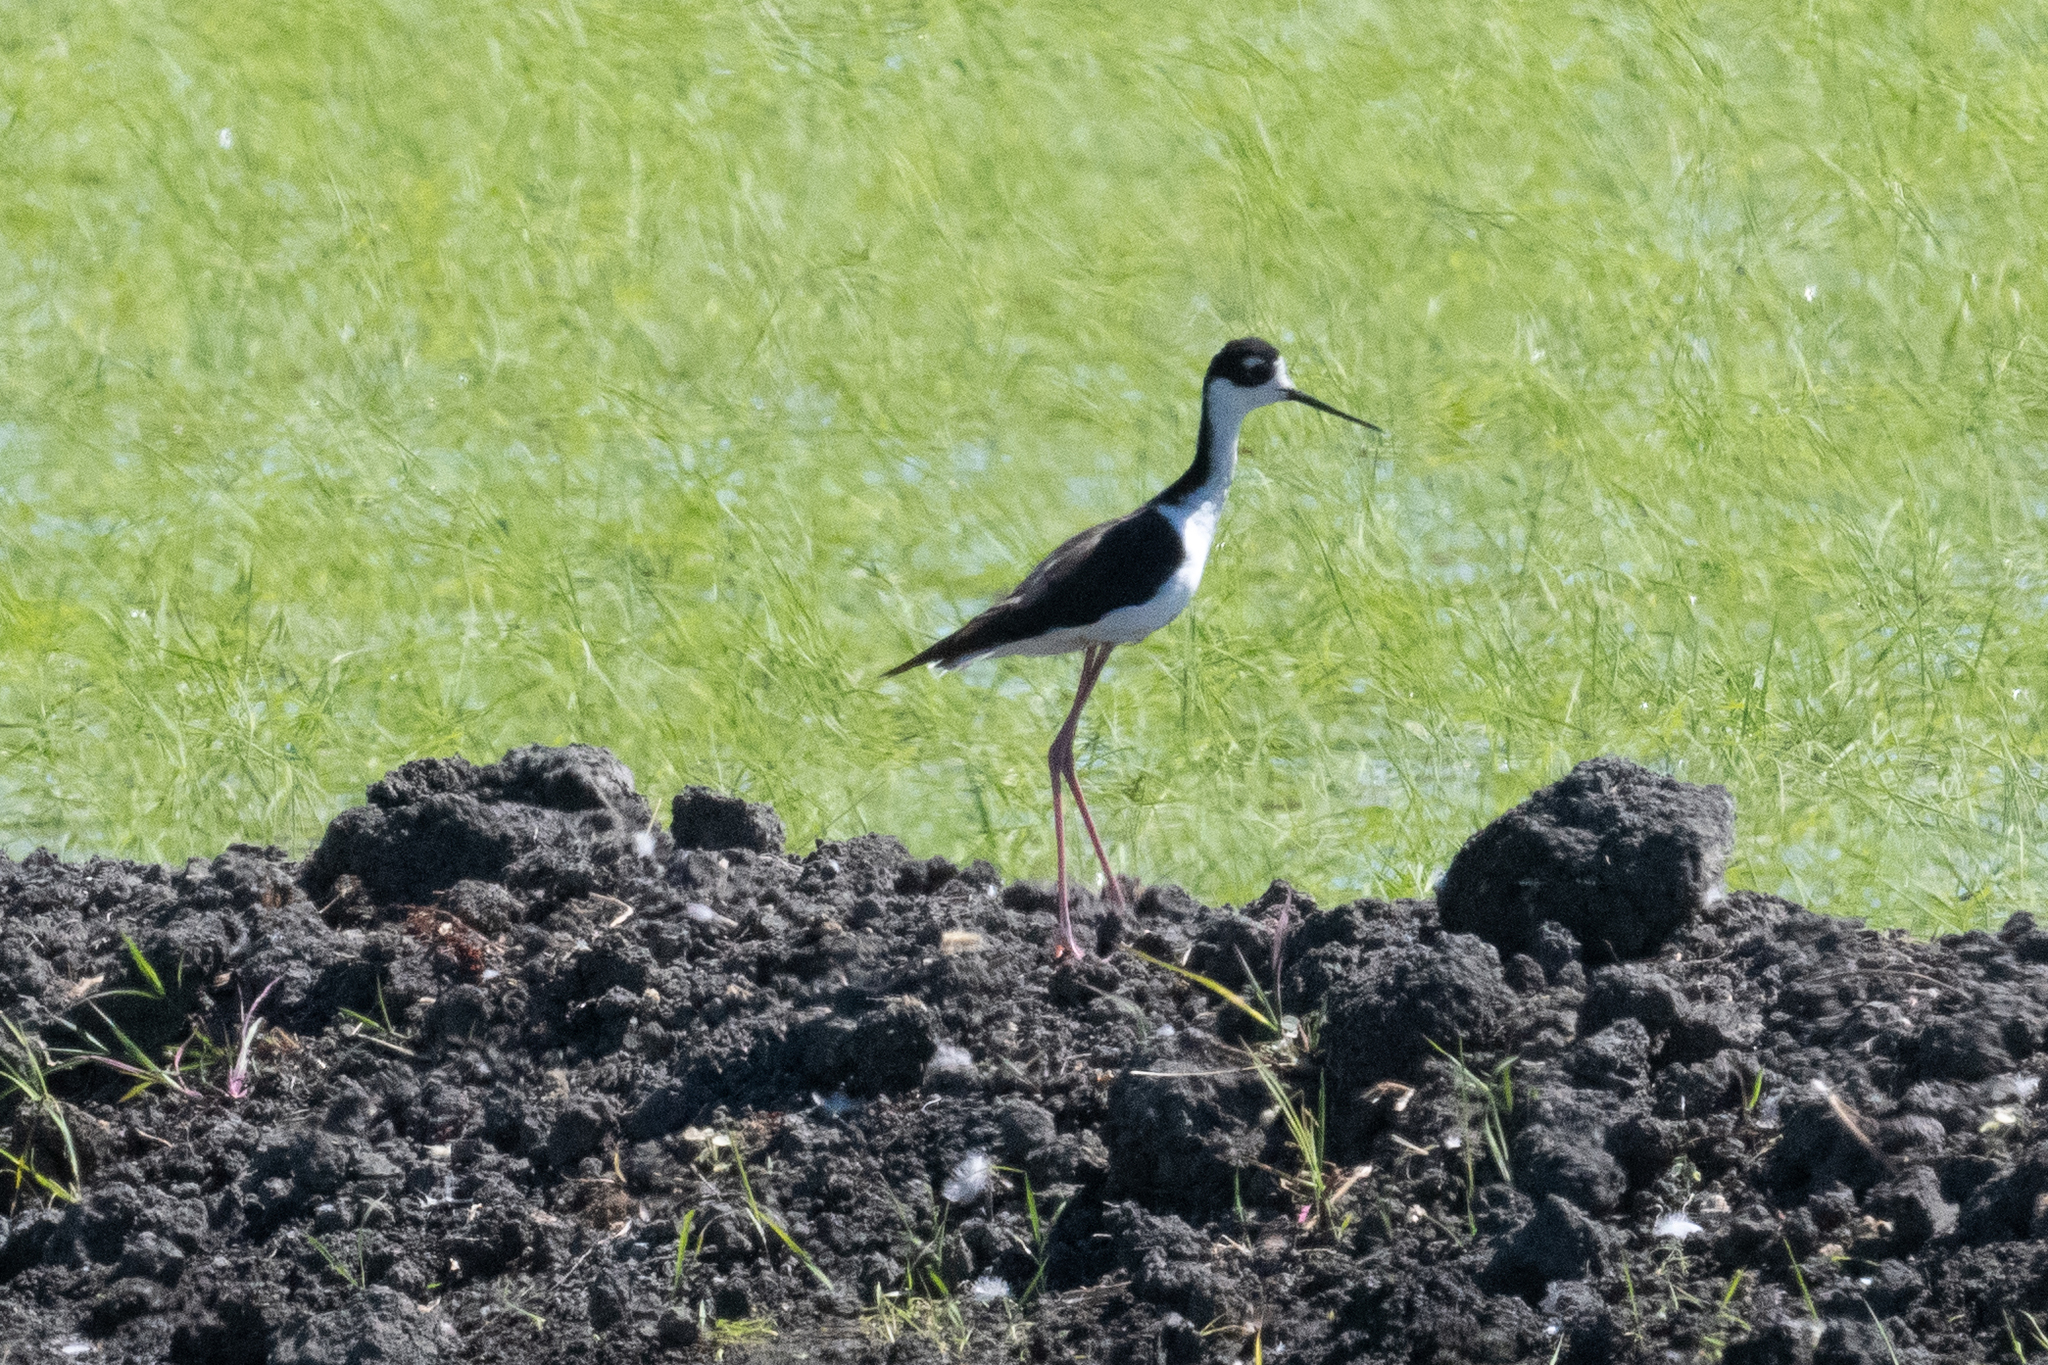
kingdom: Animalia
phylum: Chordata
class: Aves
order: Charadriiformes
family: Recurvirostridae
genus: Himantopus
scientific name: Himantopus mexicanus
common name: Black-necked stilt
